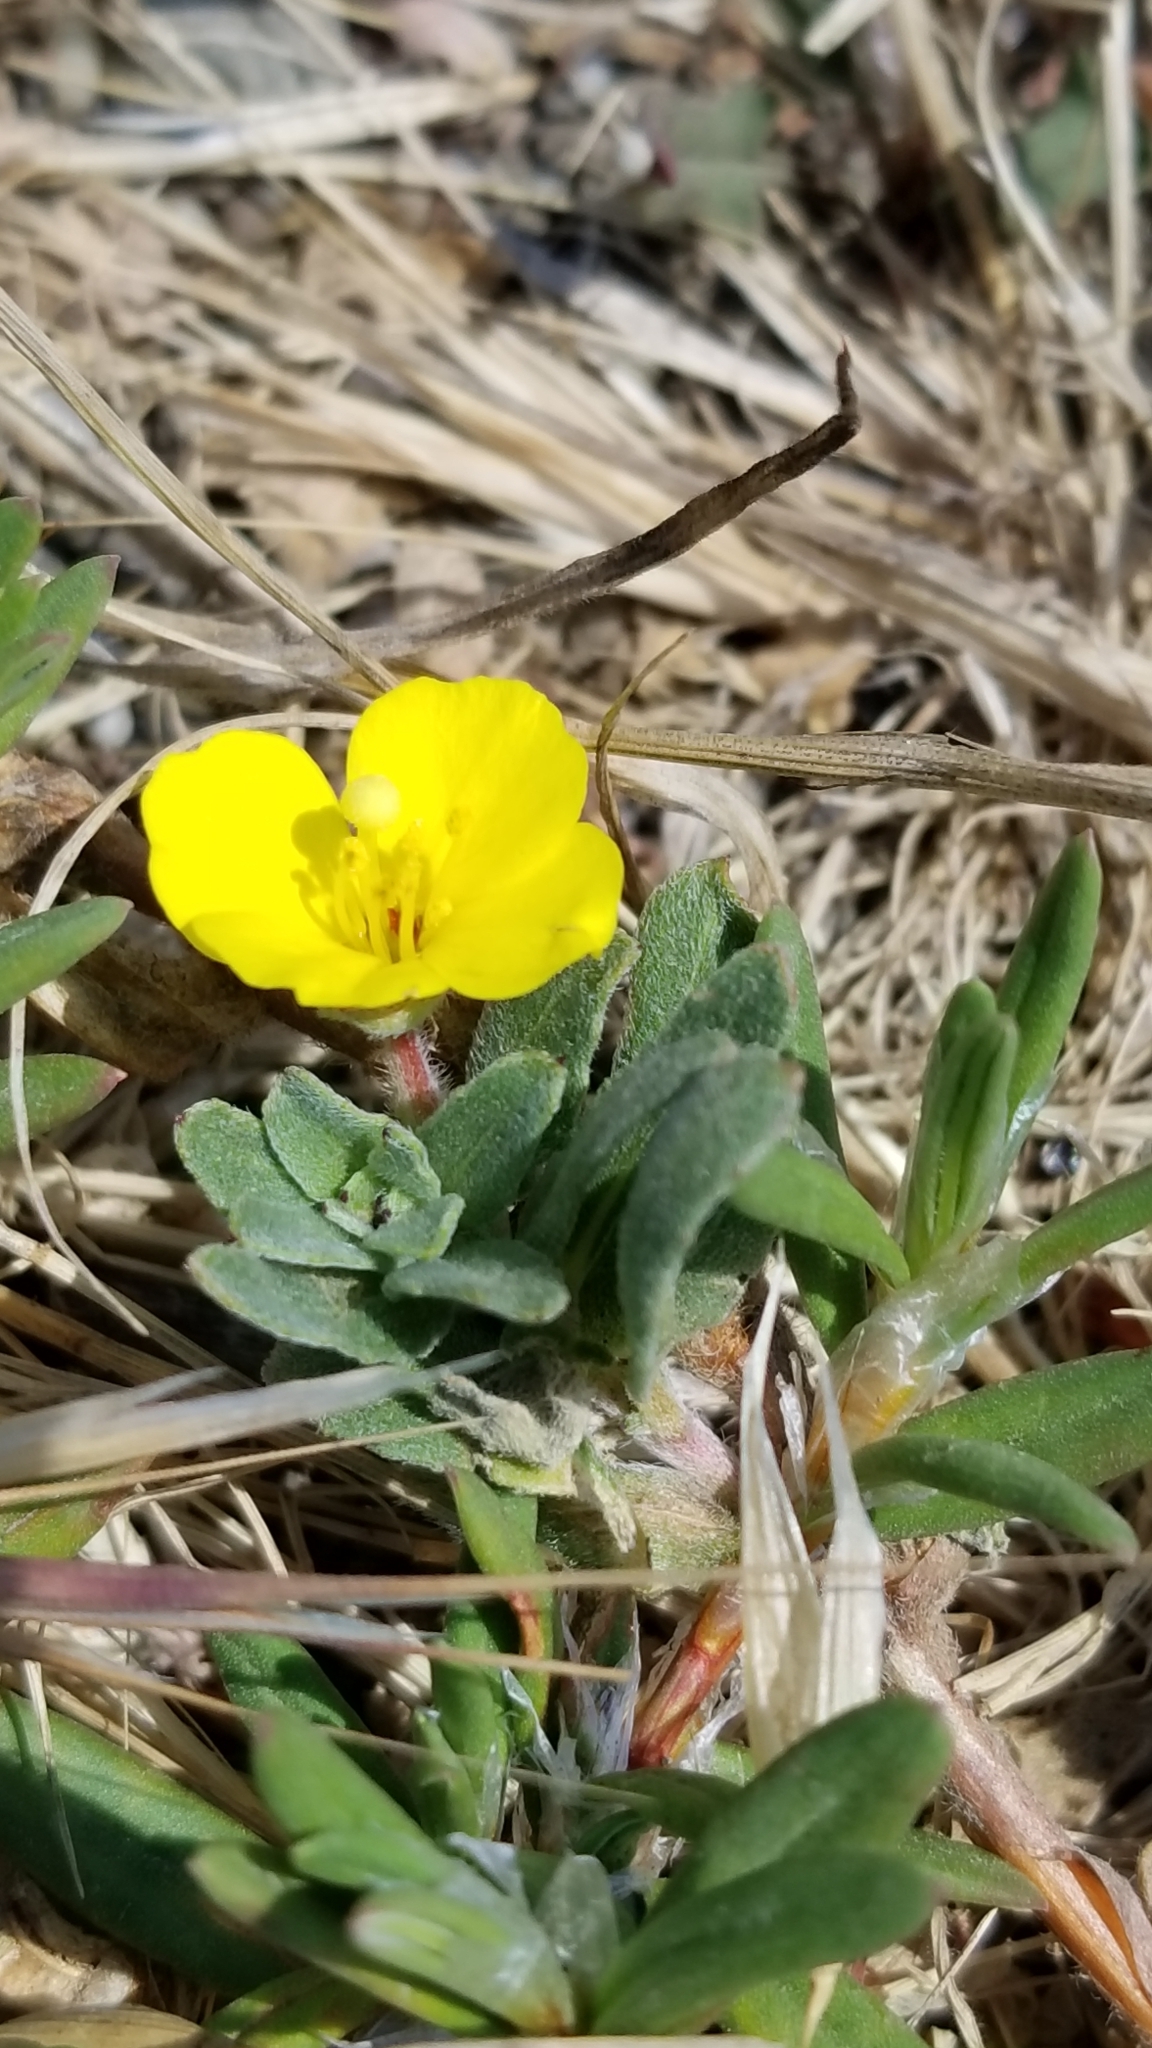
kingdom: Plantae
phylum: Tracheophyta
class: Magnoliopsida
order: Myrtales
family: Onagraceae
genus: Camissoniopsis
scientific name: Camissoniopsis cheiranthifolia
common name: Beach suncup
